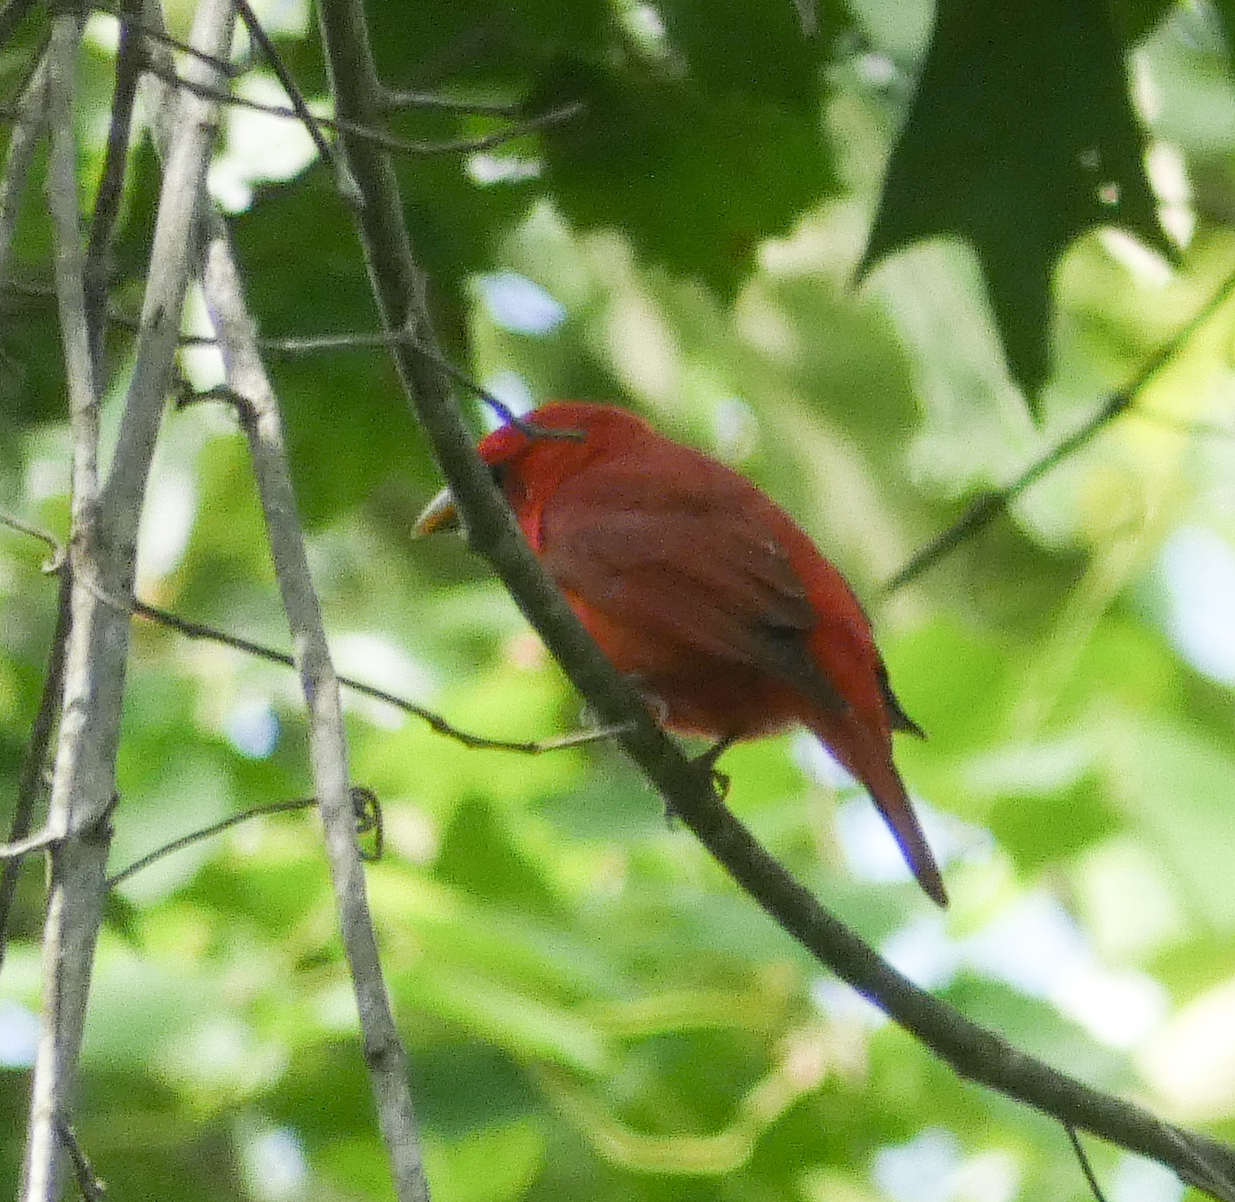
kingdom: Animalia
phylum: Chordata
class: Aves
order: Passeriformes
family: Cardinalidae
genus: Piranga
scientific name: Piranga rubra
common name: Summer tanager
